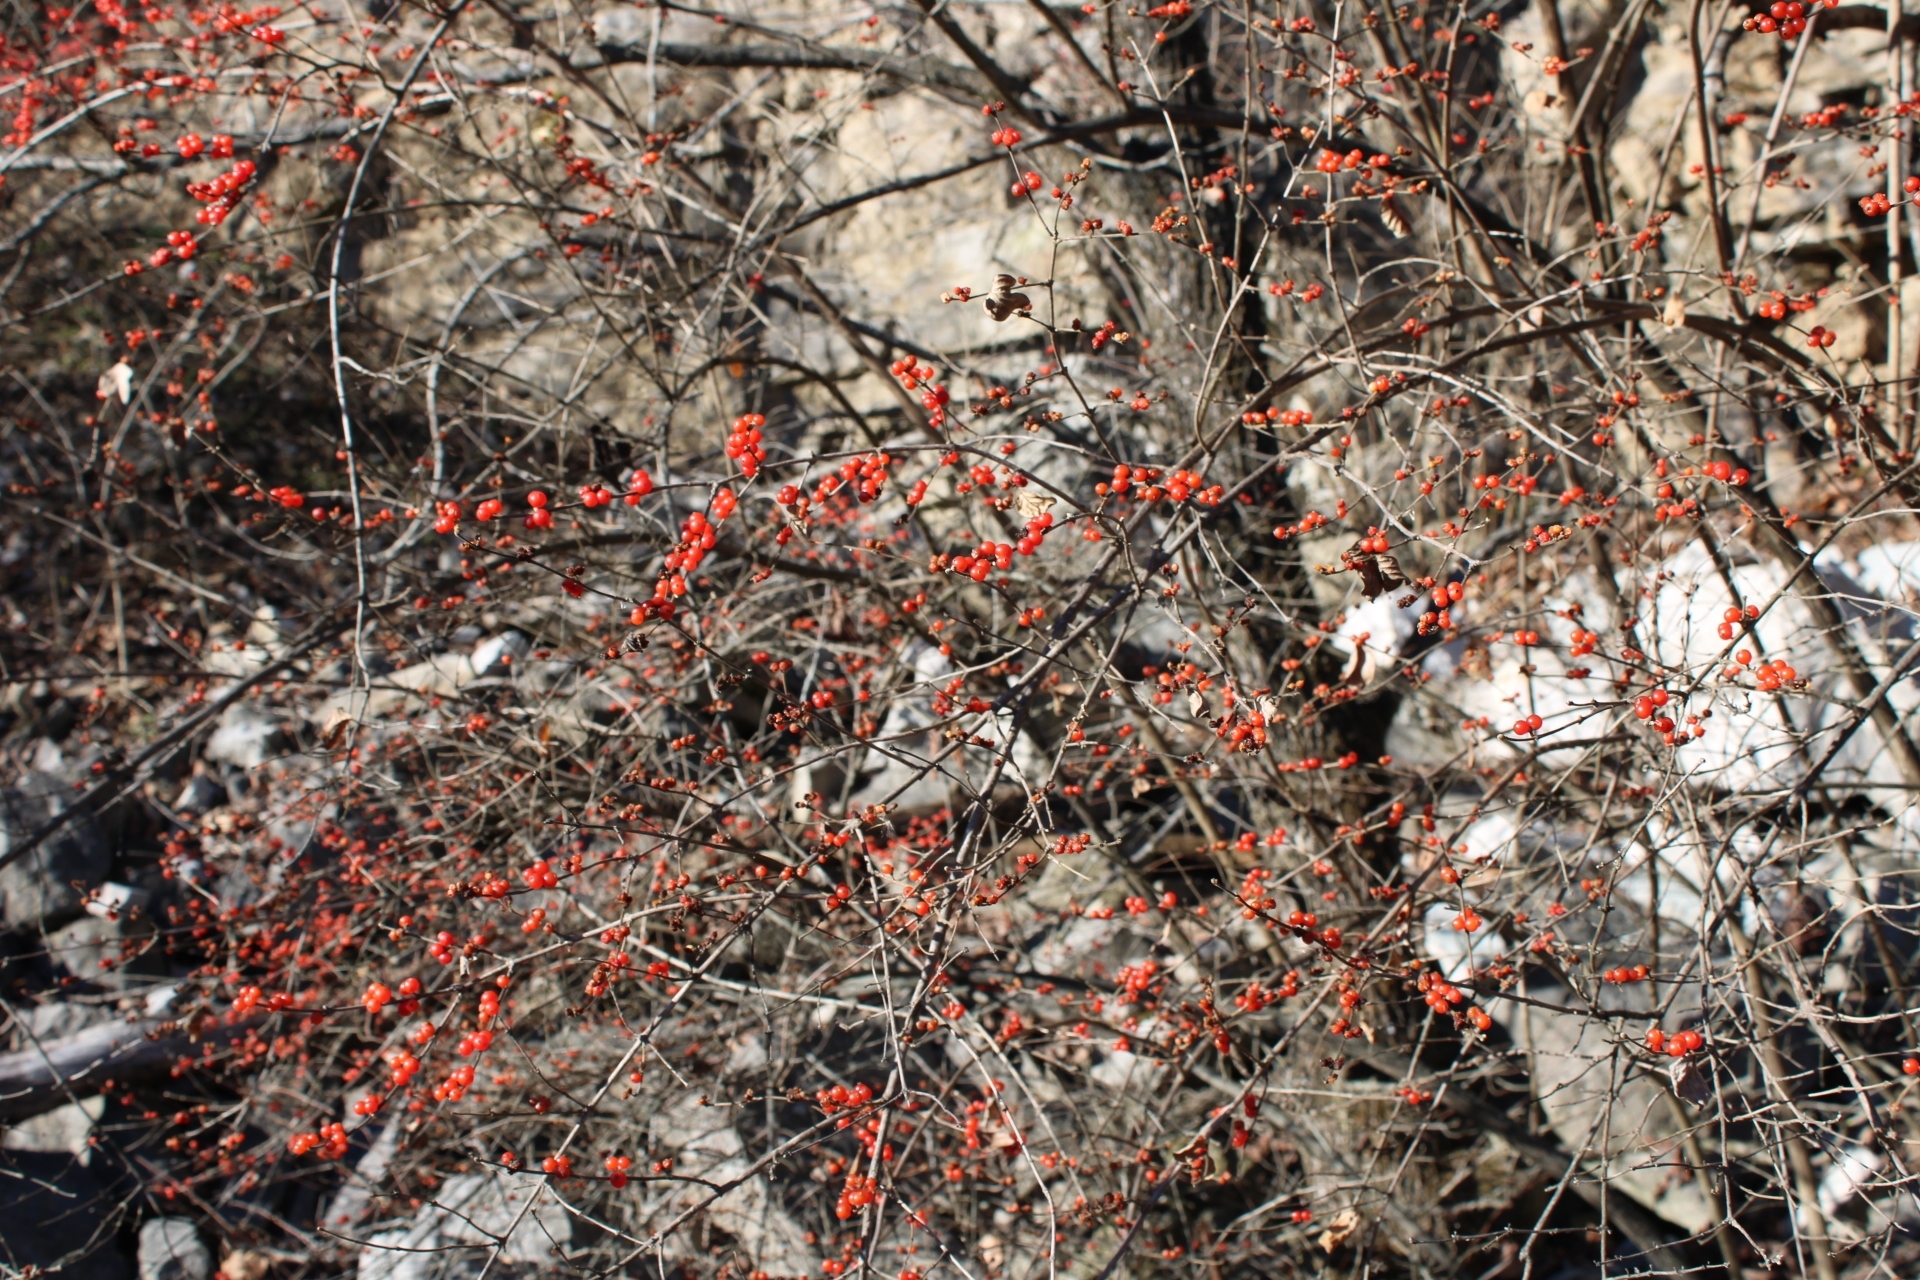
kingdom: Plantae
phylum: Tracheophyta
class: Magnoliopsida
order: Dipsacales
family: Caprifoliaceae
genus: Lonicera
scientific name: Lonicera maackii
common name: Amur honeysuckle
